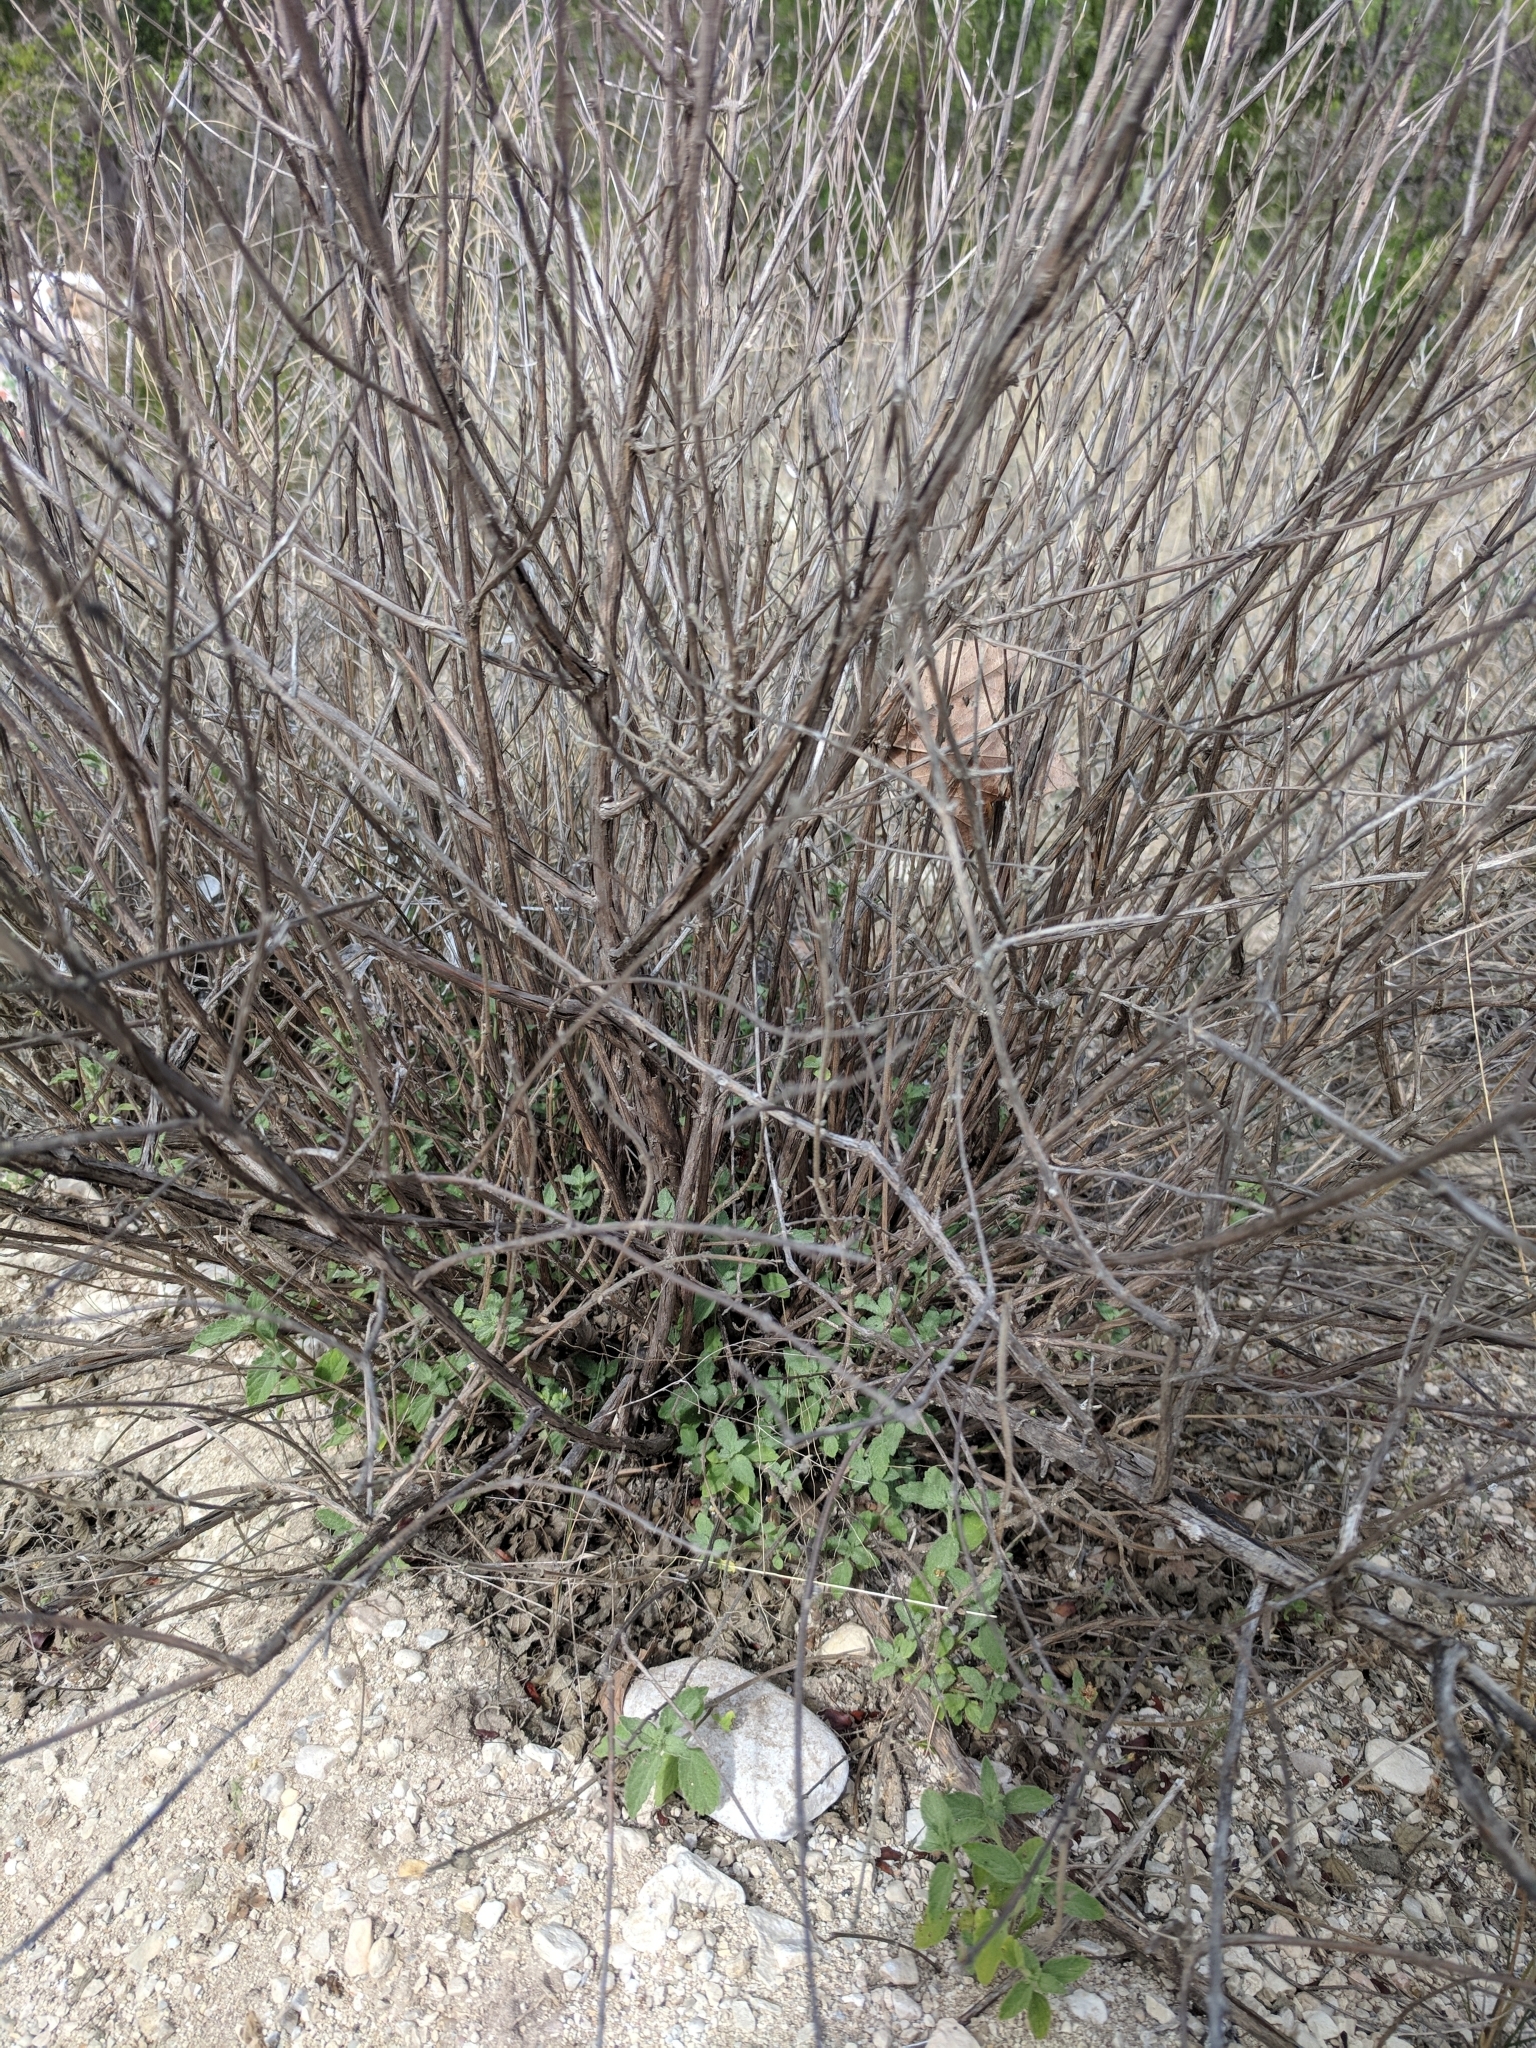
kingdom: Plantae
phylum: Tracheophyta
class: Magnoliopsida
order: Lamiales
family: Verbenaceae
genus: Lippia
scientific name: Lippia origanoides
